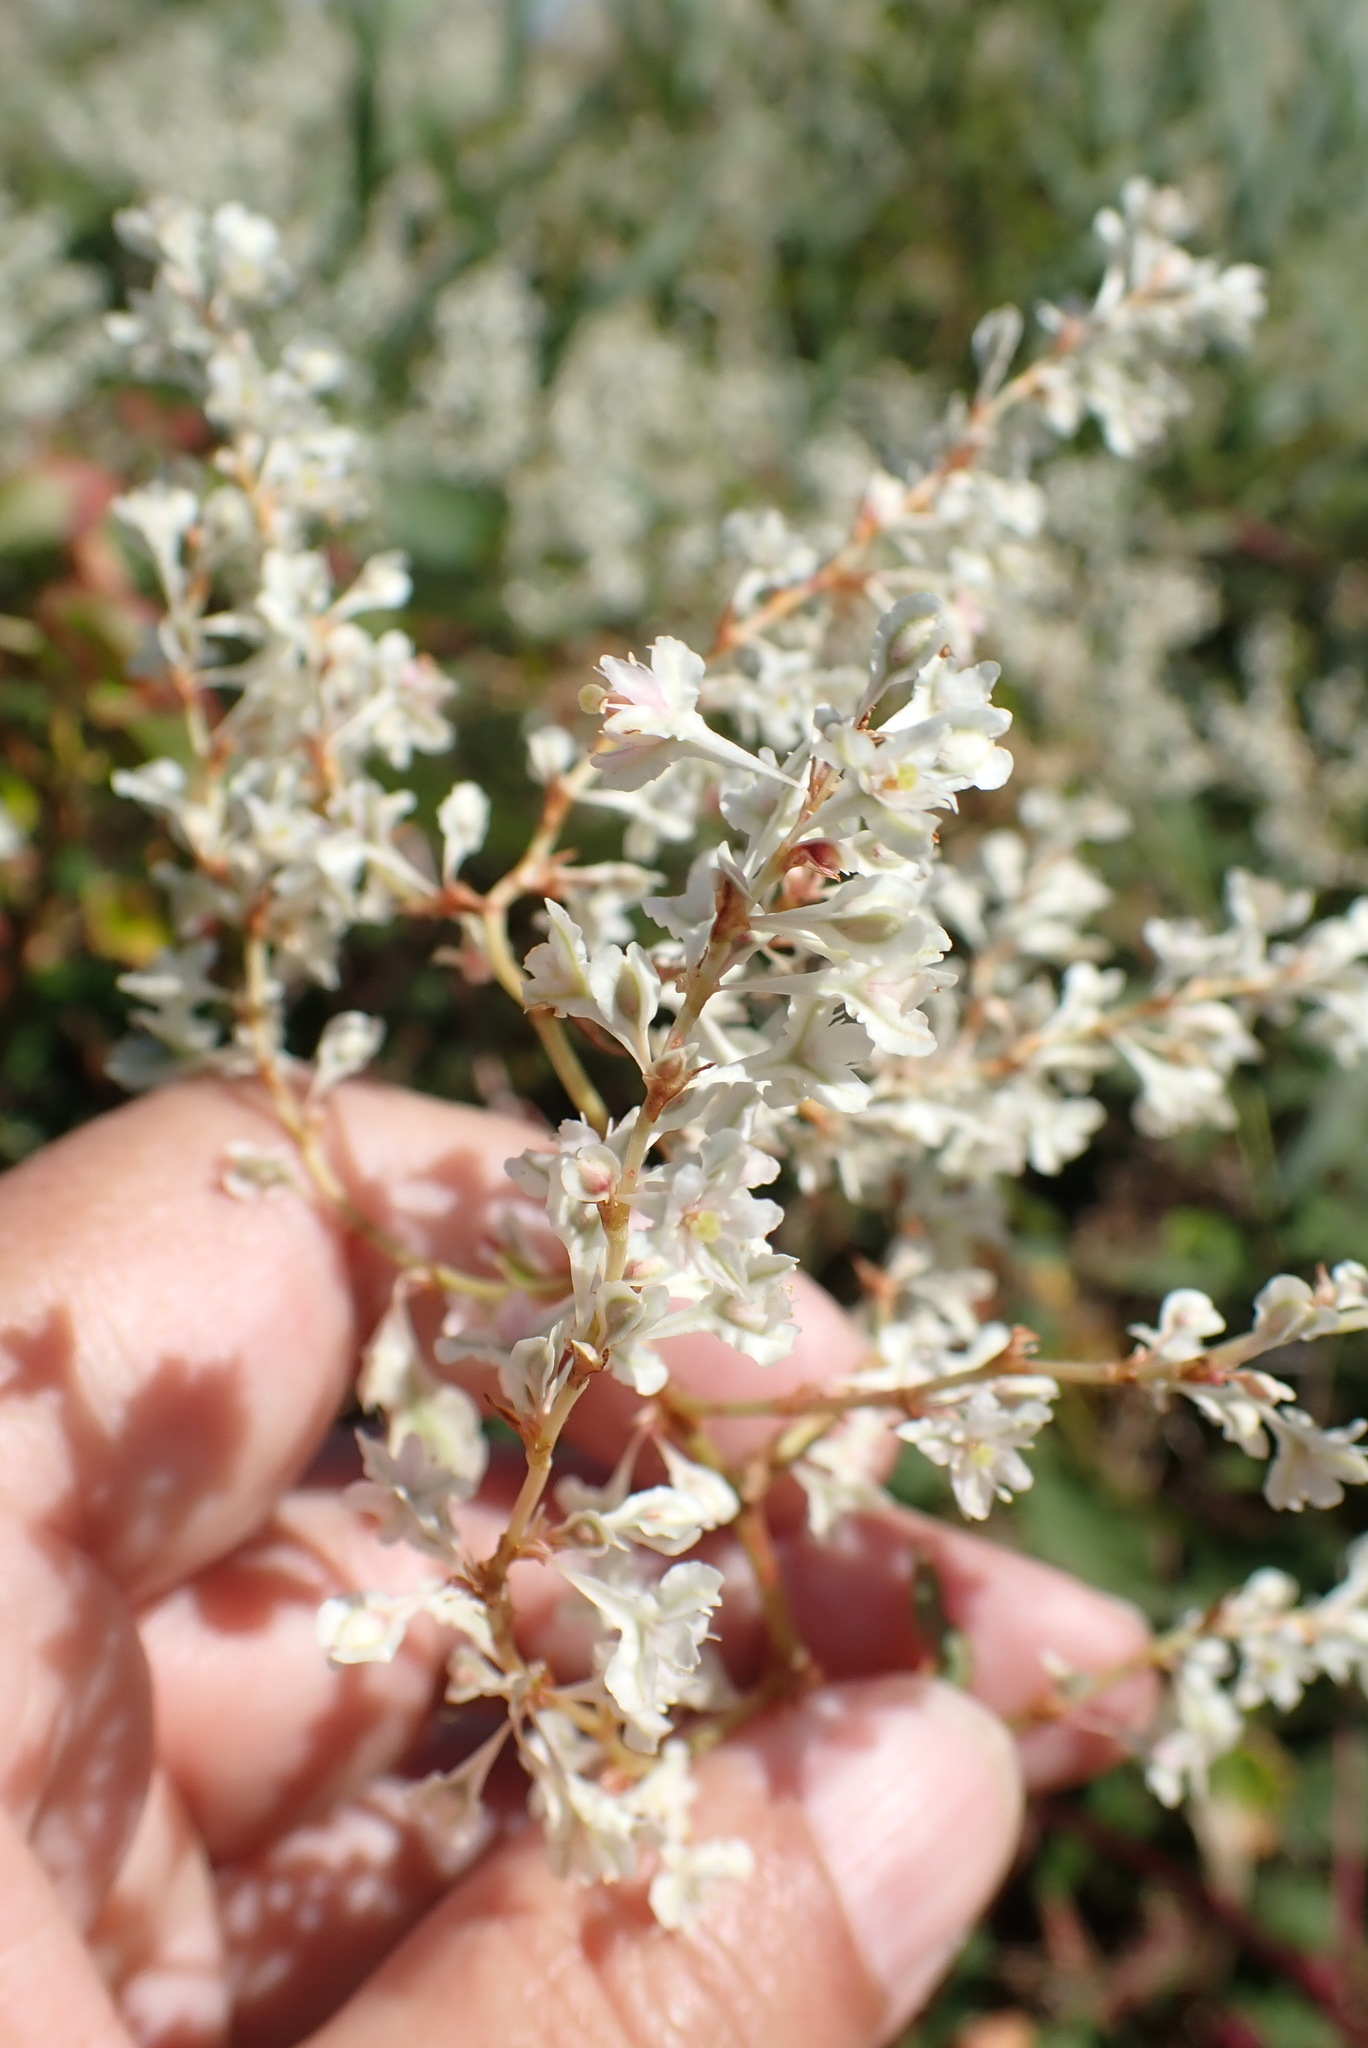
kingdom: Plantae
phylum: Tracheophyta
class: Magnoliopsida
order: Caryophyllales
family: Polygonaceae
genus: Fallopia
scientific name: Fallopia baldschuanica
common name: Russian-vine
